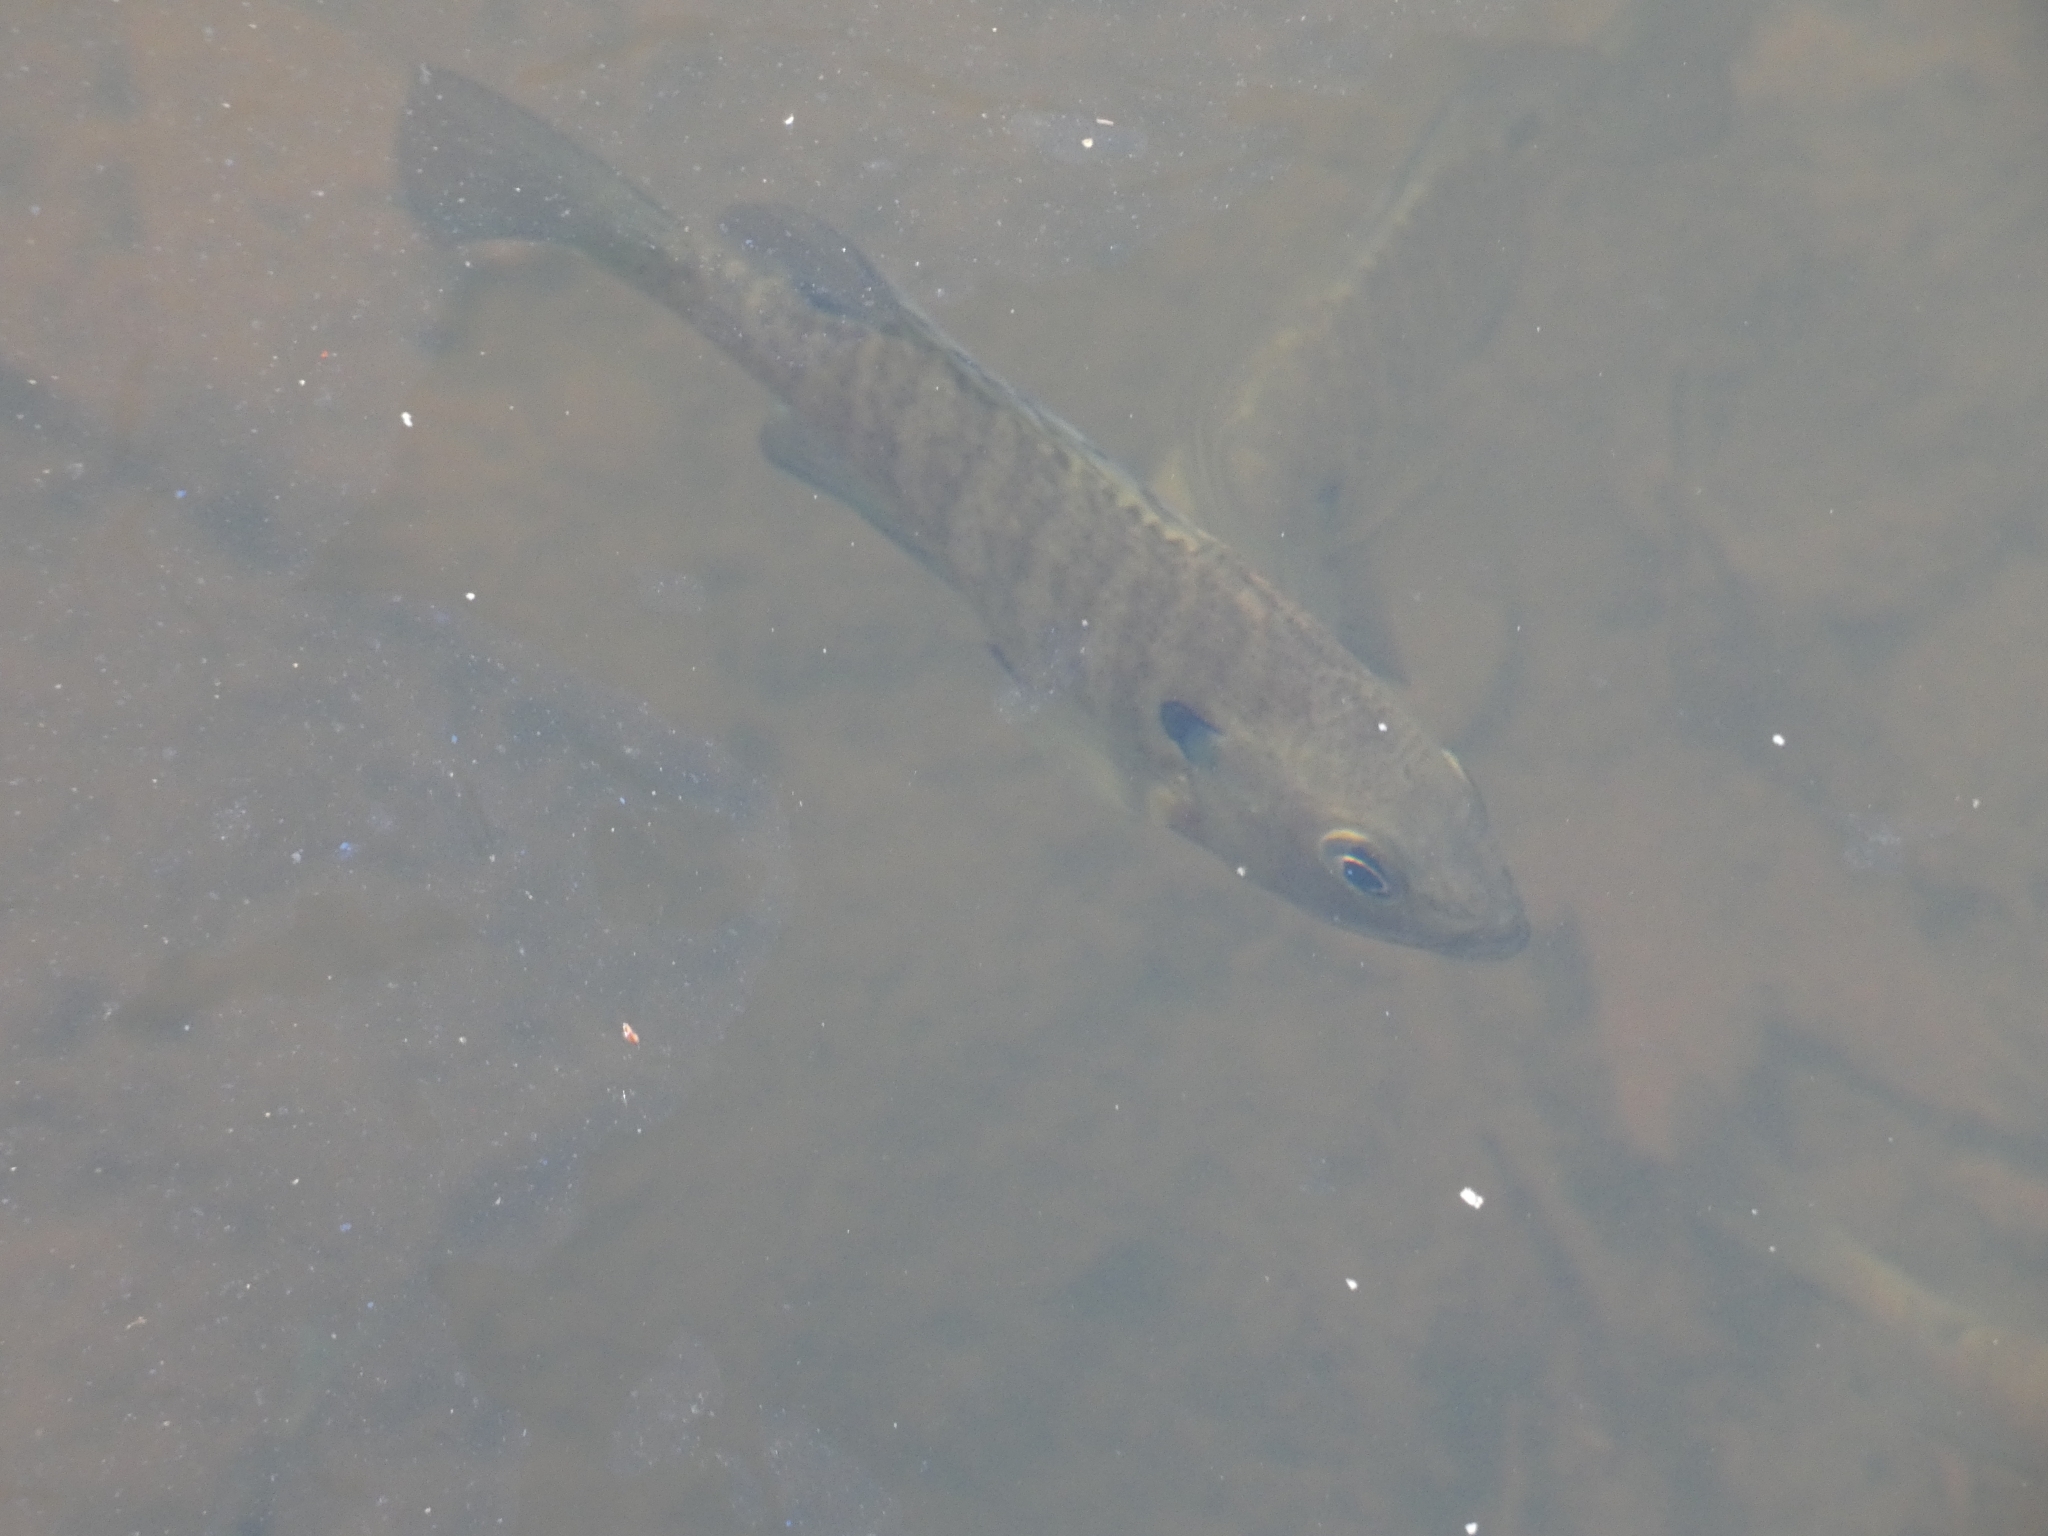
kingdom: Animalia
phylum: Chordata
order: Perciformes
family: Centrarchidae
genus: Lepomis
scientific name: Lepomis macrochirus
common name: Bluegill
